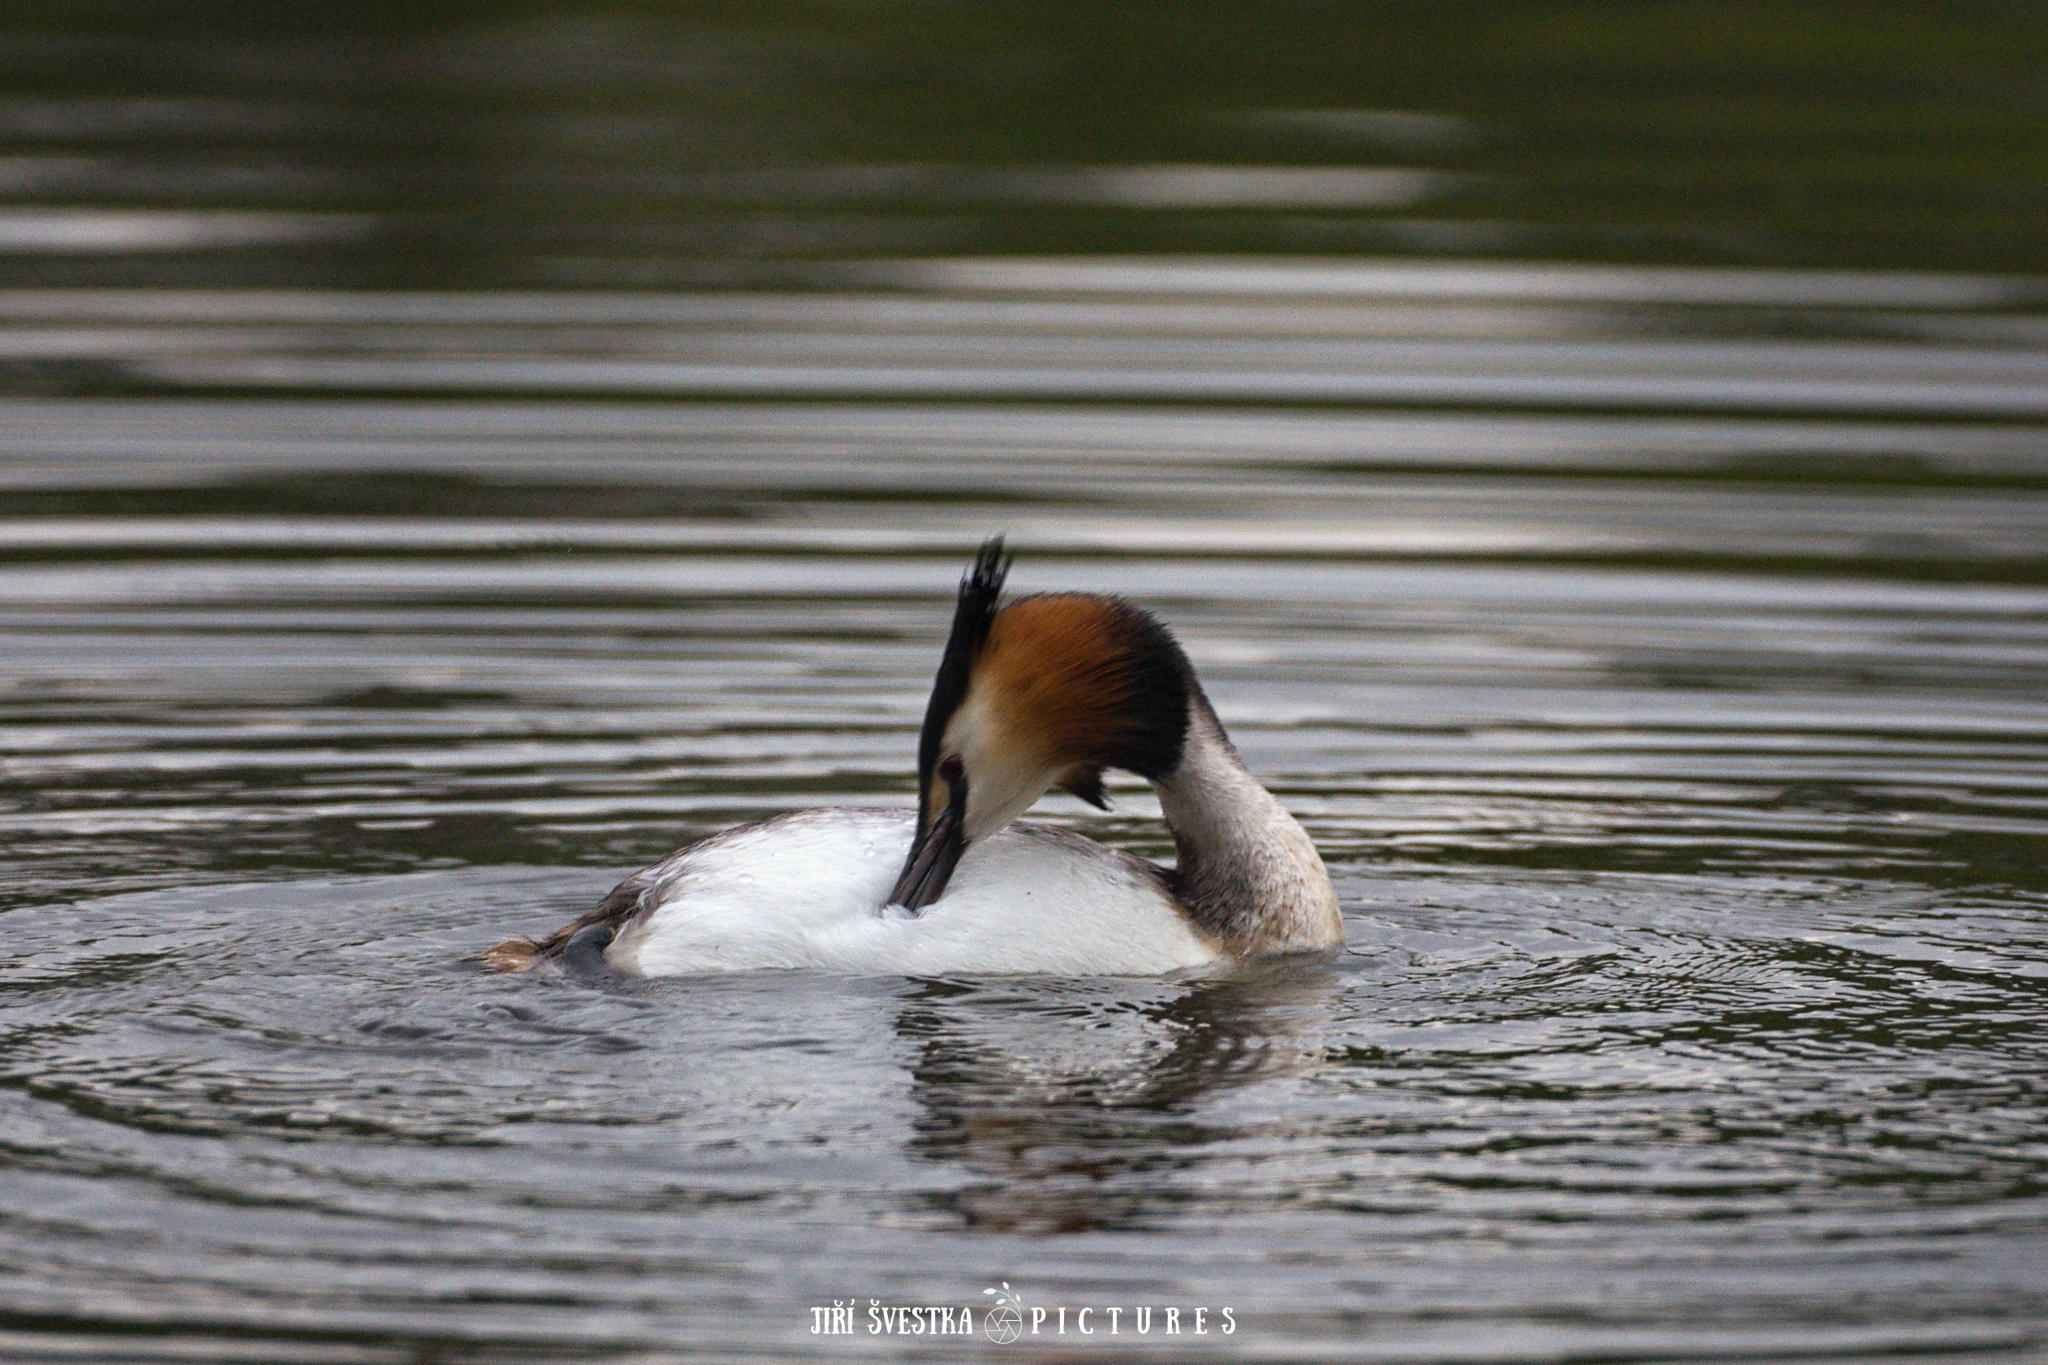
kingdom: Animalia
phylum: Chordata
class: Aves
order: Podicipediformes
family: Podicipedidae
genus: Podiceps
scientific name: Podiceps cristatus
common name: Great crested grebe
